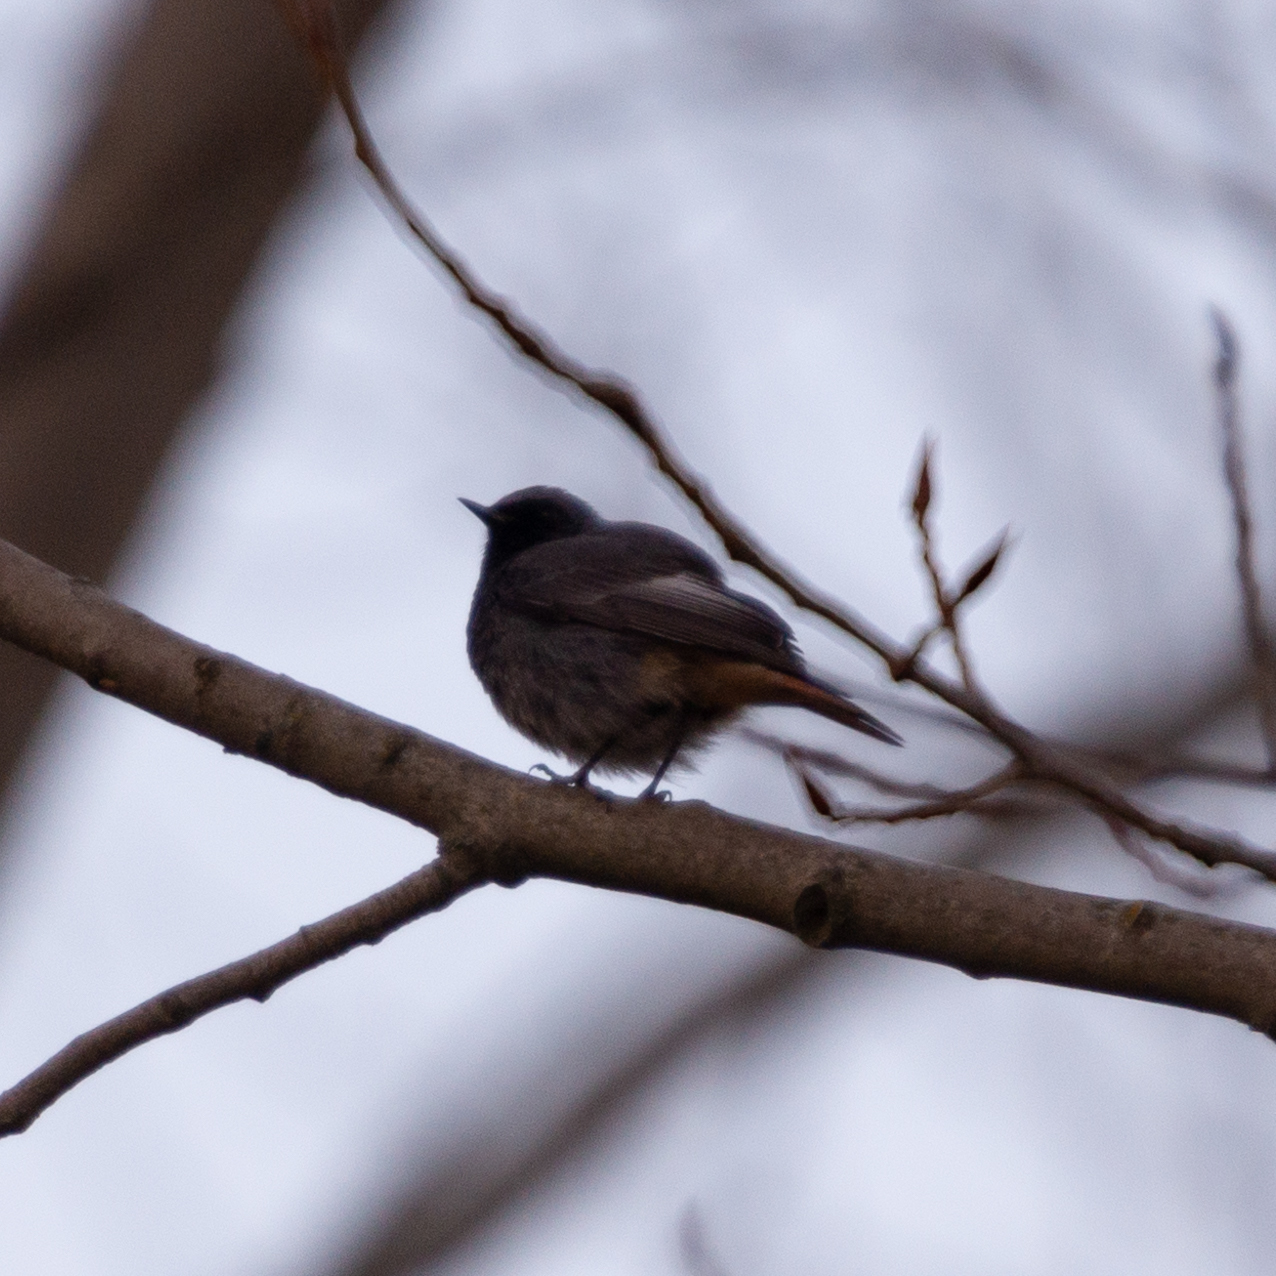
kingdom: Animalia
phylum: Chordata
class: Aves
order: Passeriformes
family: Muscicapidae
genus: Phoenicurus
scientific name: Phoenicurus ochruros
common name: Black redstart
